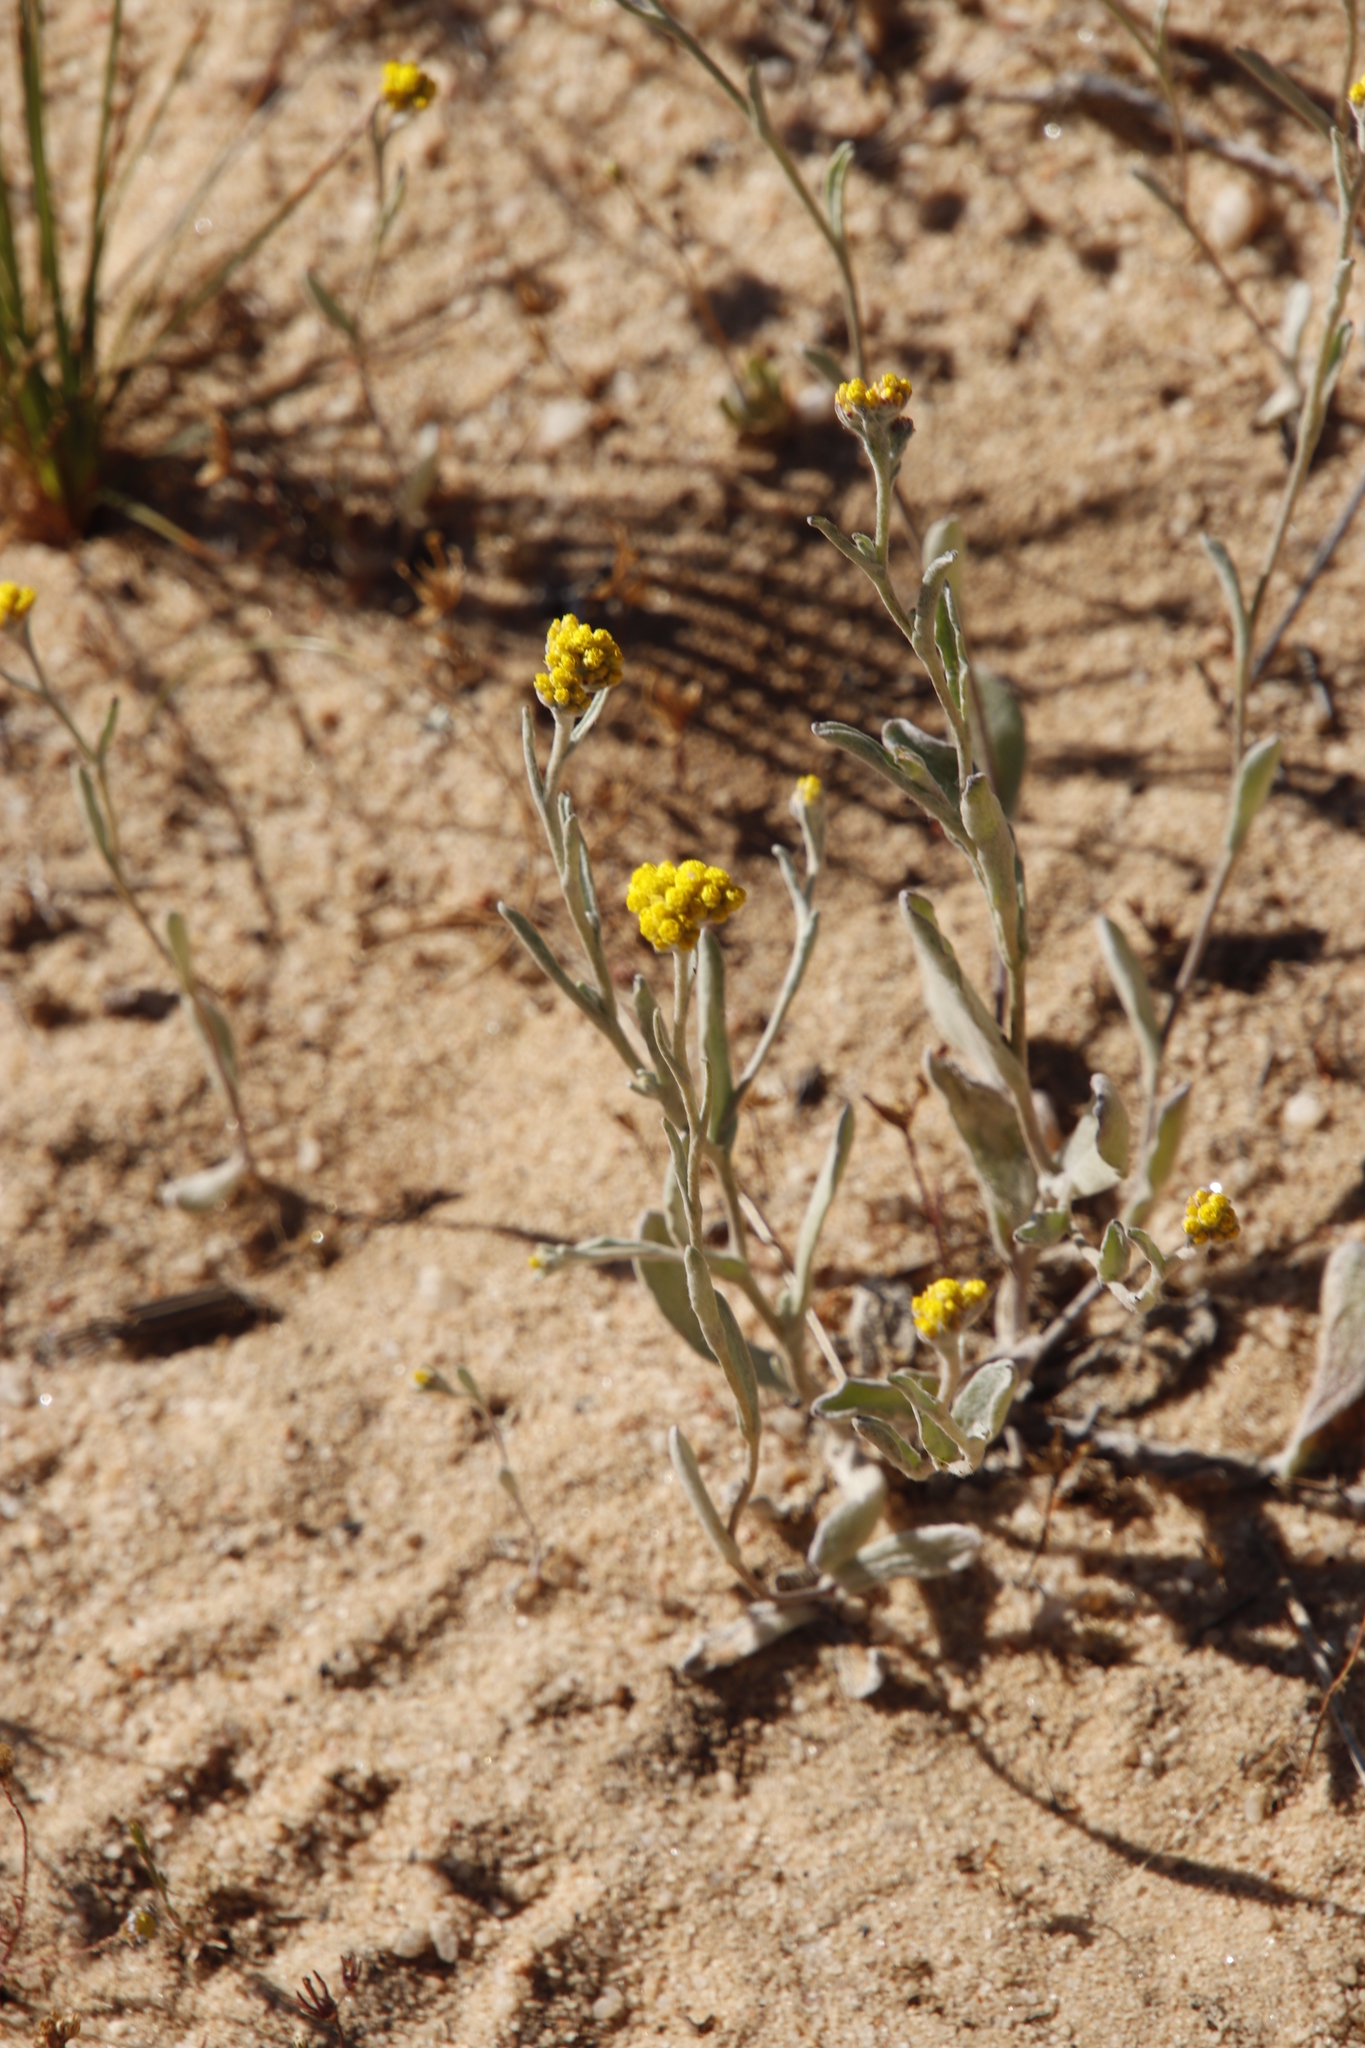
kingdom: Plantae
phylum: Tracheophyta
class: Magnoliopsida
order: Asterales
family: Asteraceae
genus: Helichrysum
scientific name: Helichrysum moeserianum
